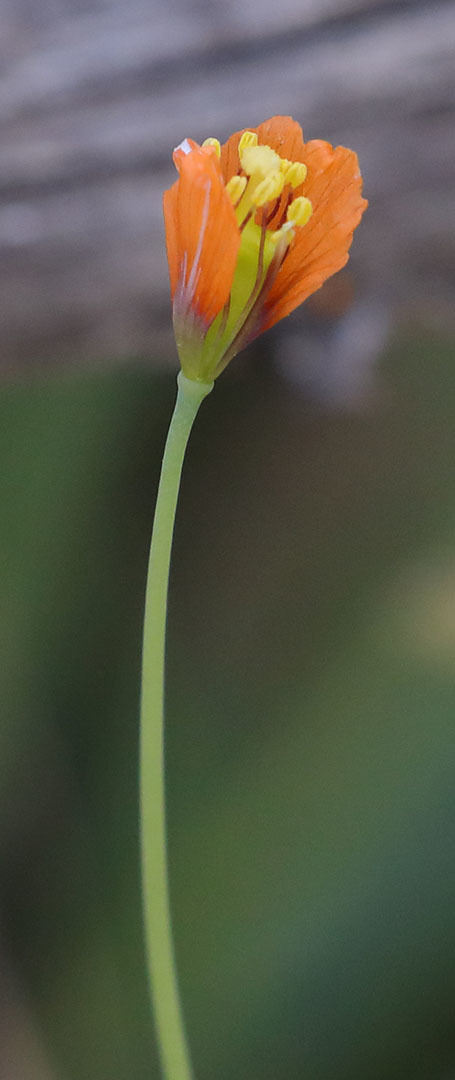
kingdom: Plantae
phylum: Tracheophyta
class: Magnoliopsida
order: Ranunculales
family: Papaveraceae
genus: Stylomecon
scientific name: Stylomecon heterophylla
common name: Flaming-poppy
